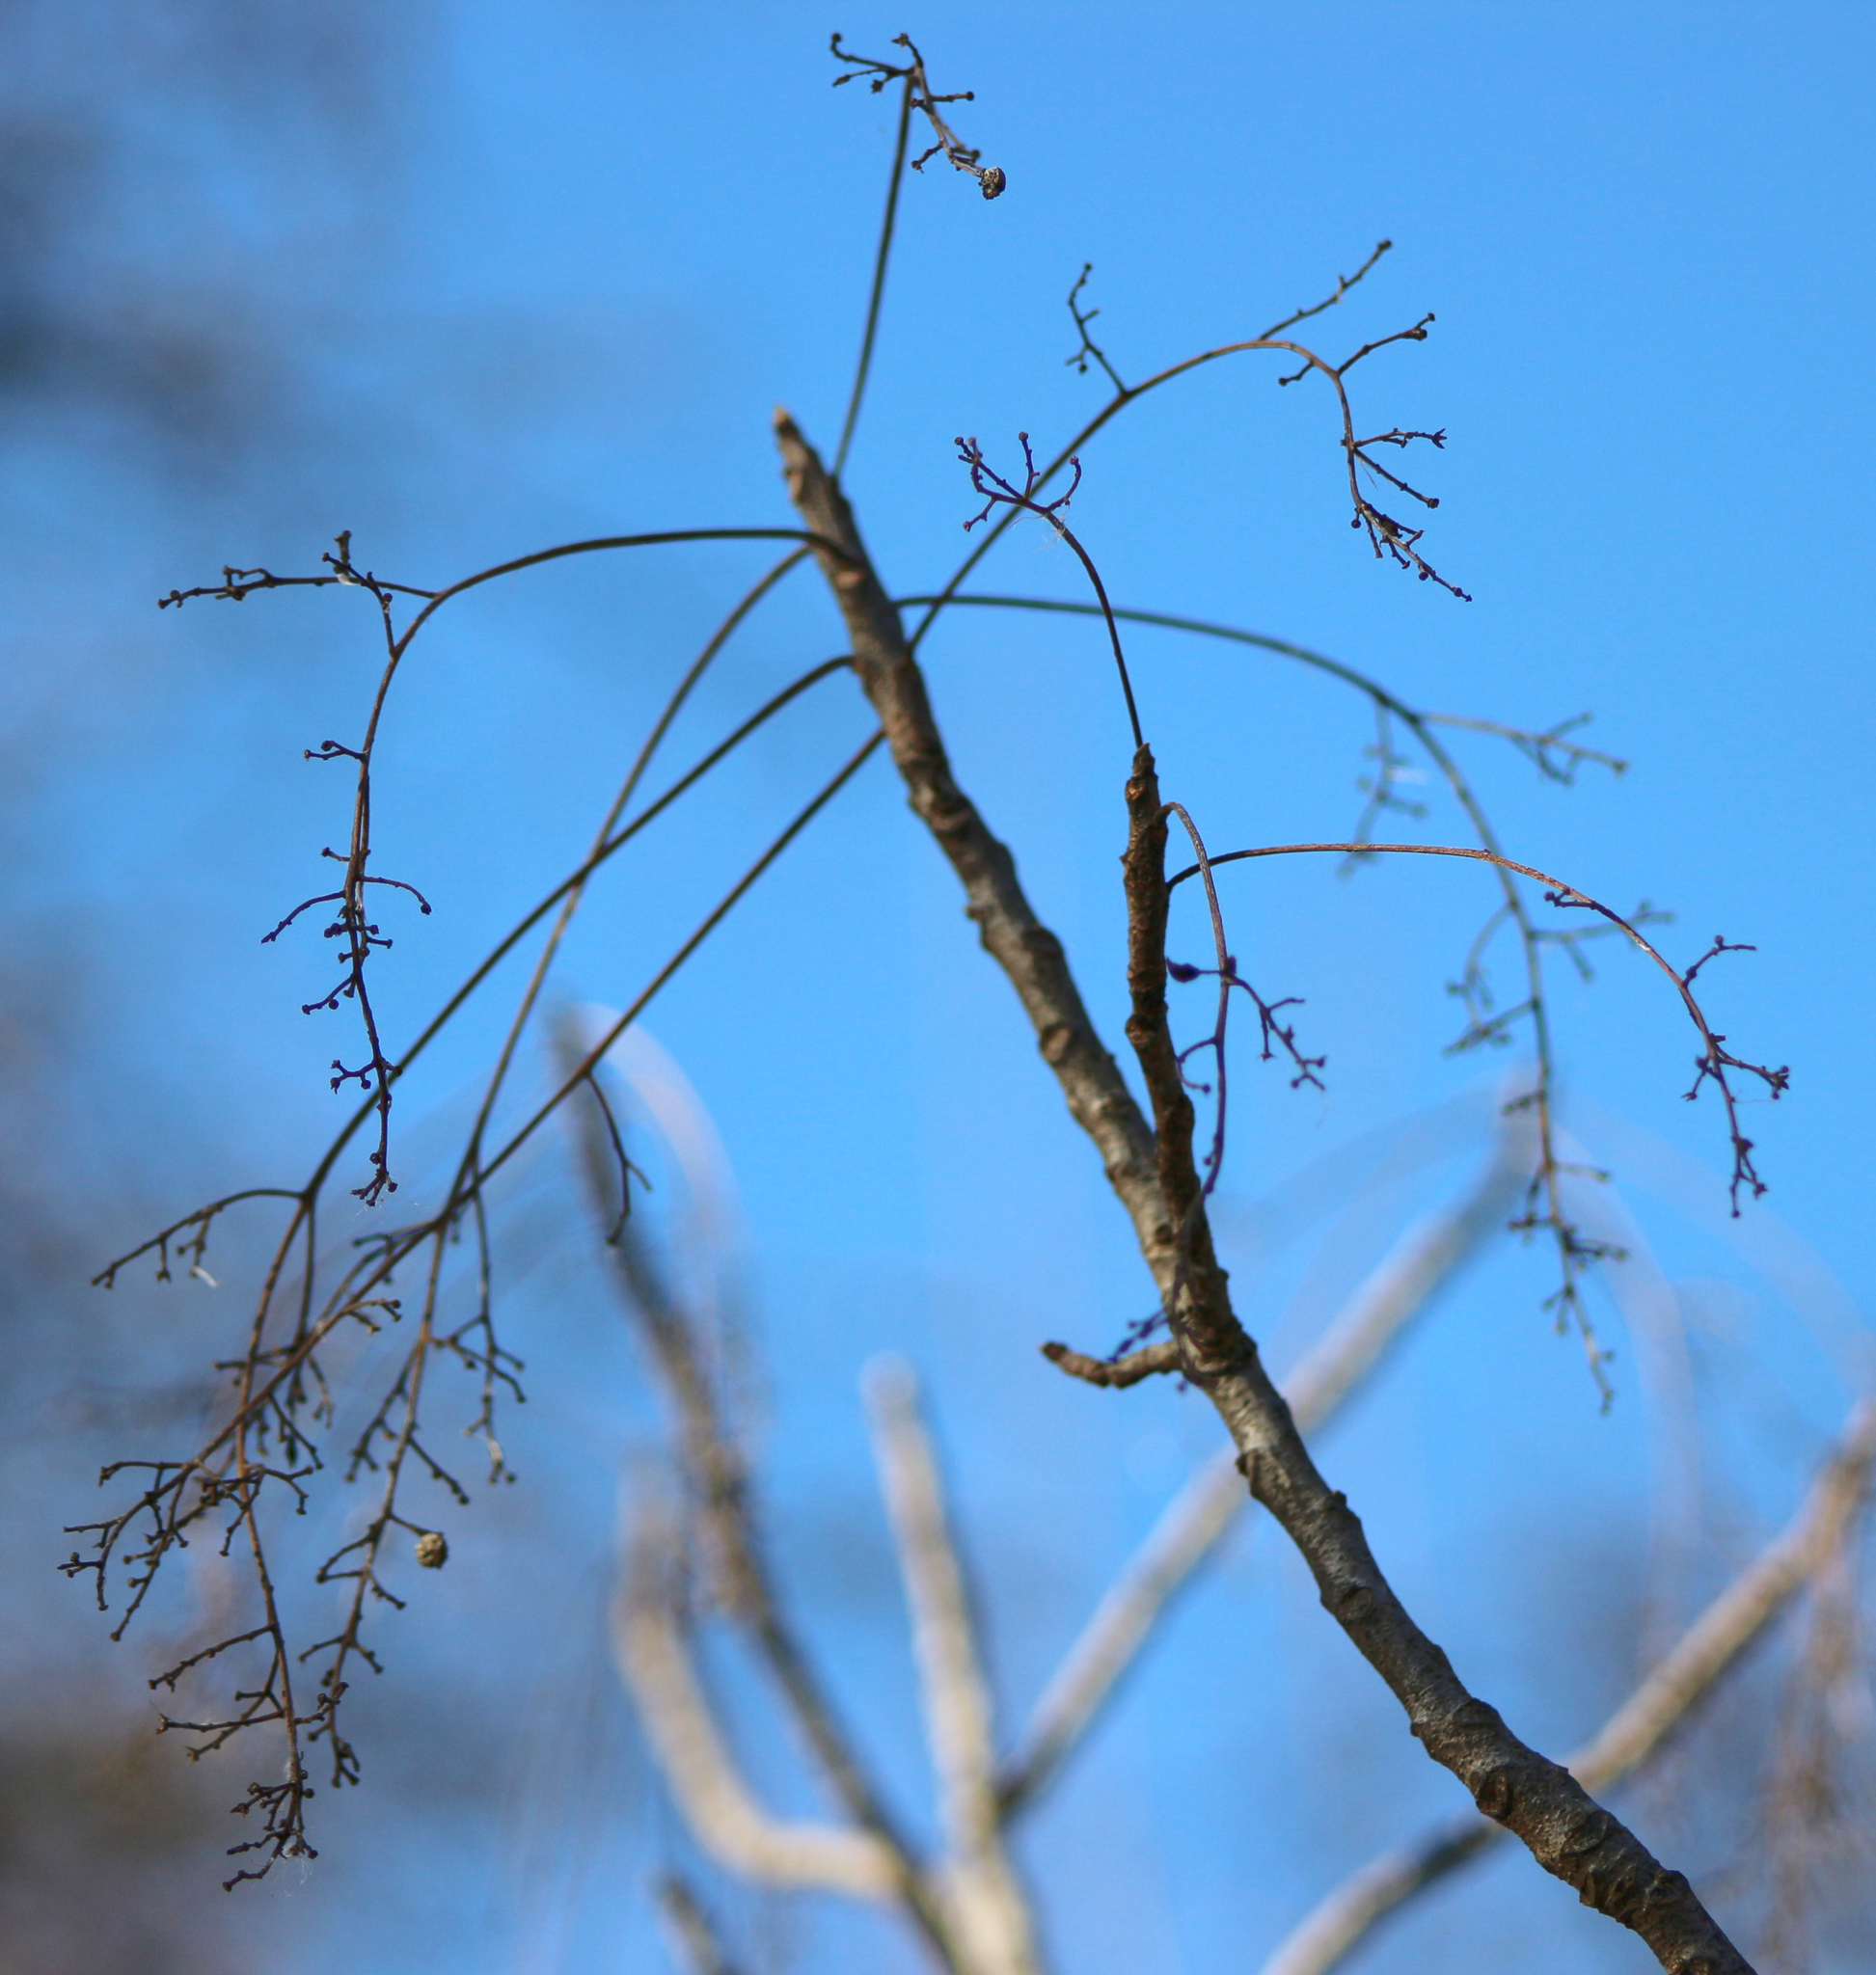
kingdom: Plantae
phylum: Tracheophyta
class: Magnoliopsida
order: Sapindales
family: Anacardiaceae
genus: Toxicodendron
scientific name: Toxicodendron vernix
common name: Poison sumac
